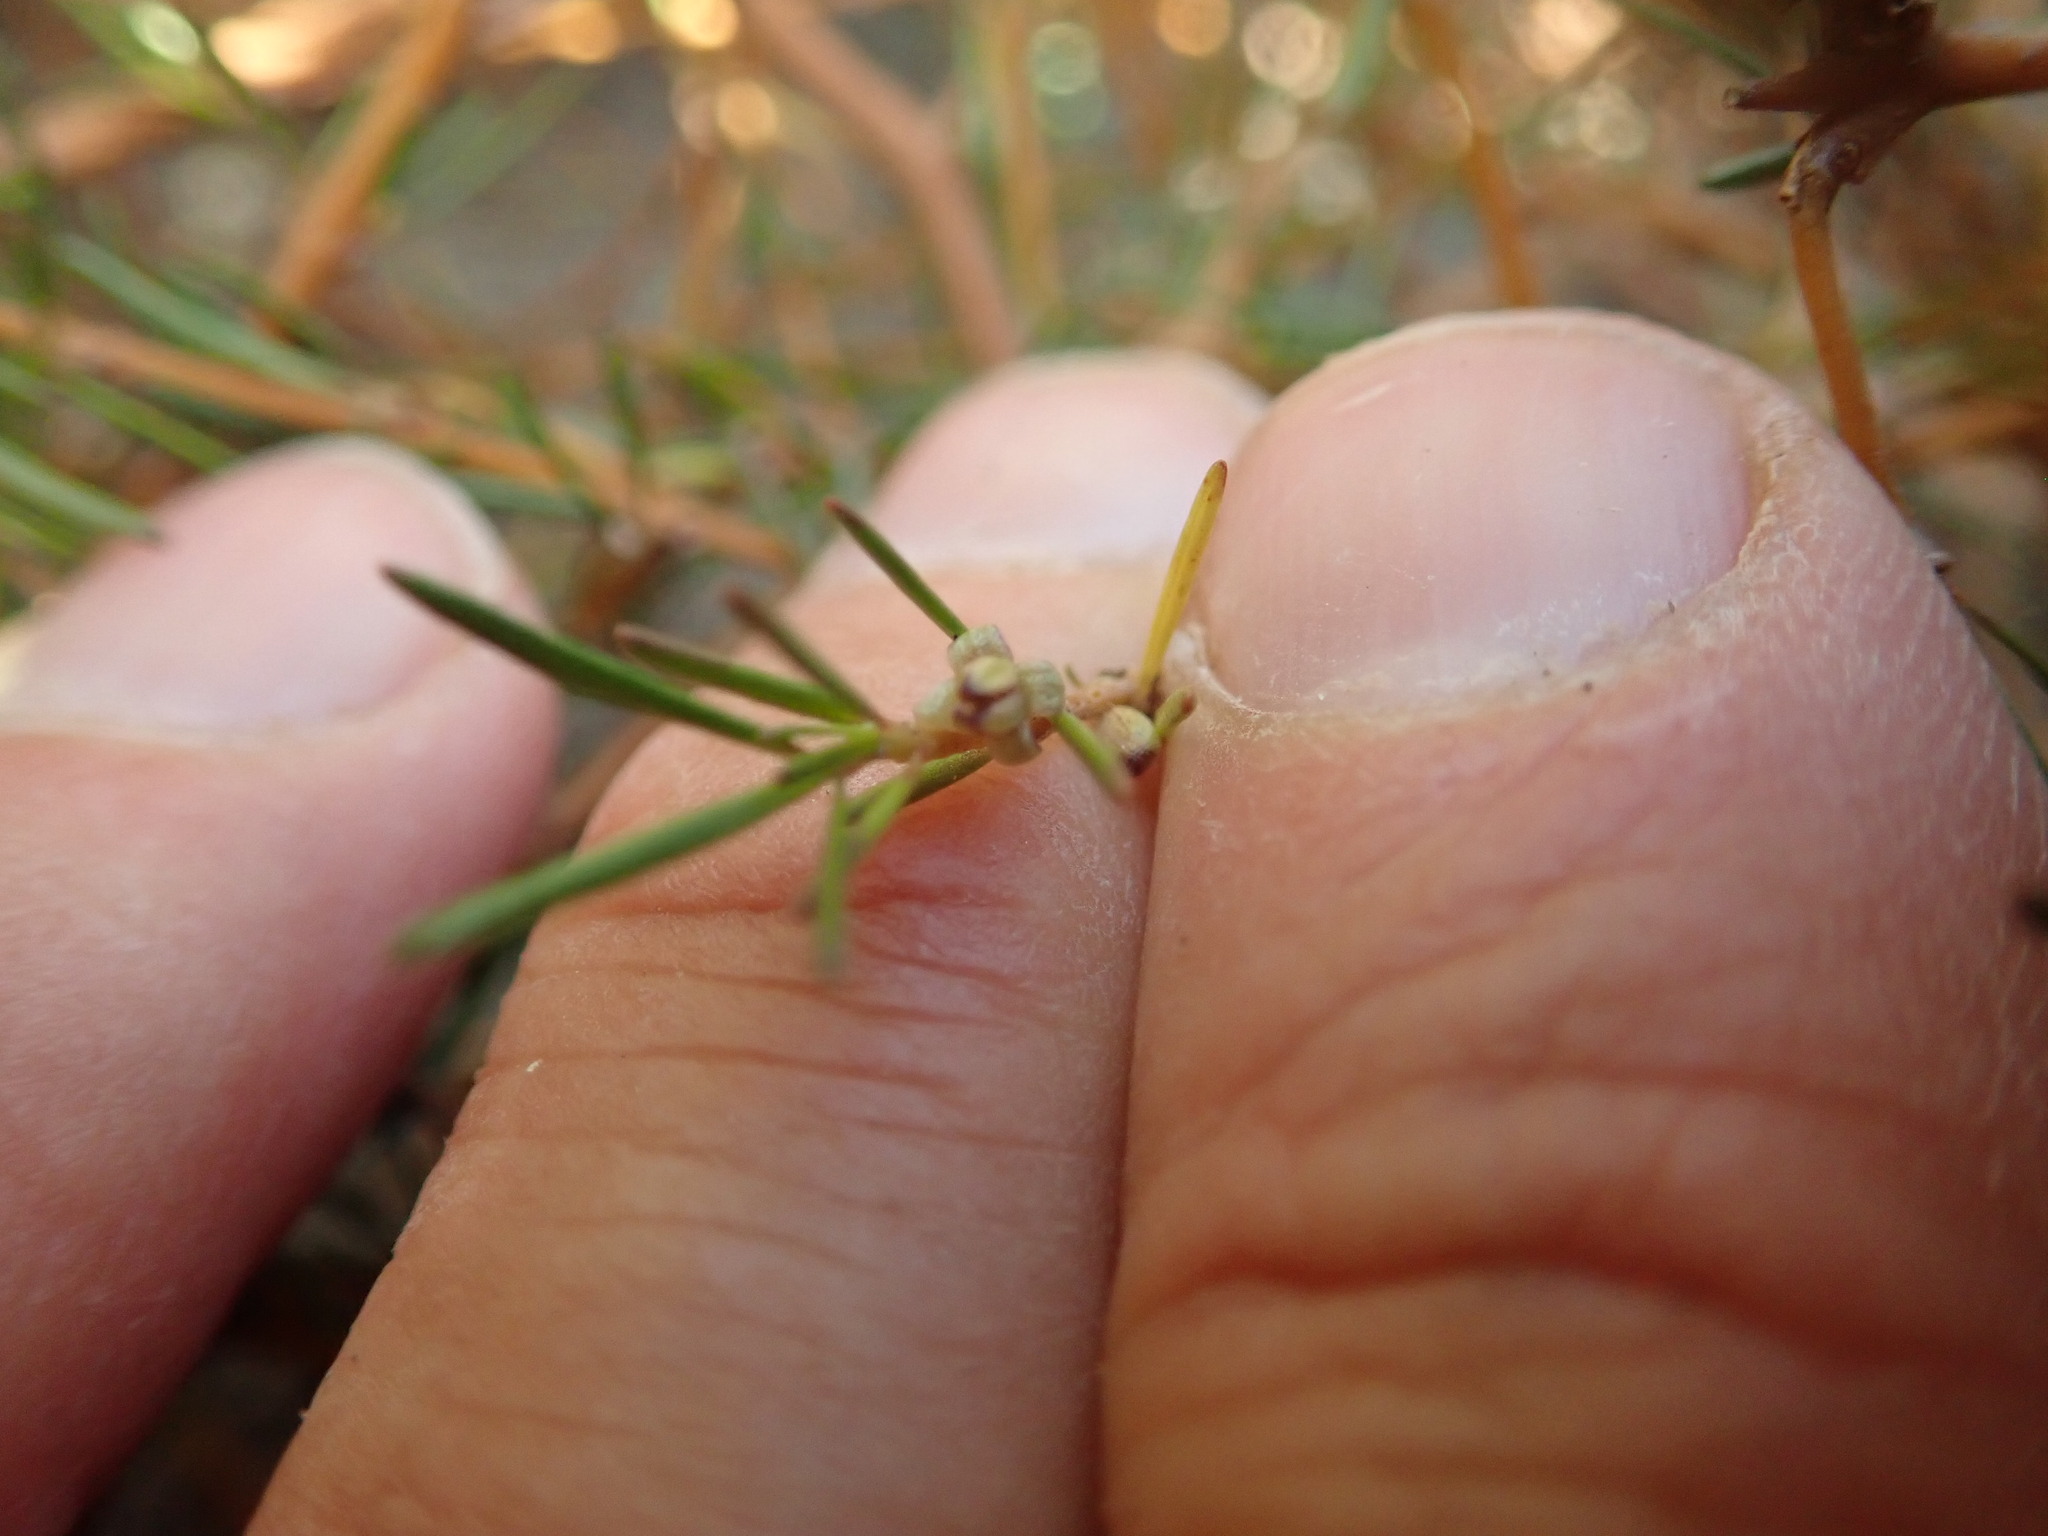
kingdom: Plantae
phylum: Tracheophyta
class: Magnoliopsida
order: Gentianales
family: Rubiaceae
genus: Coprosma
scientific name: Coprosma acerosa
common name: Sand coprosma
